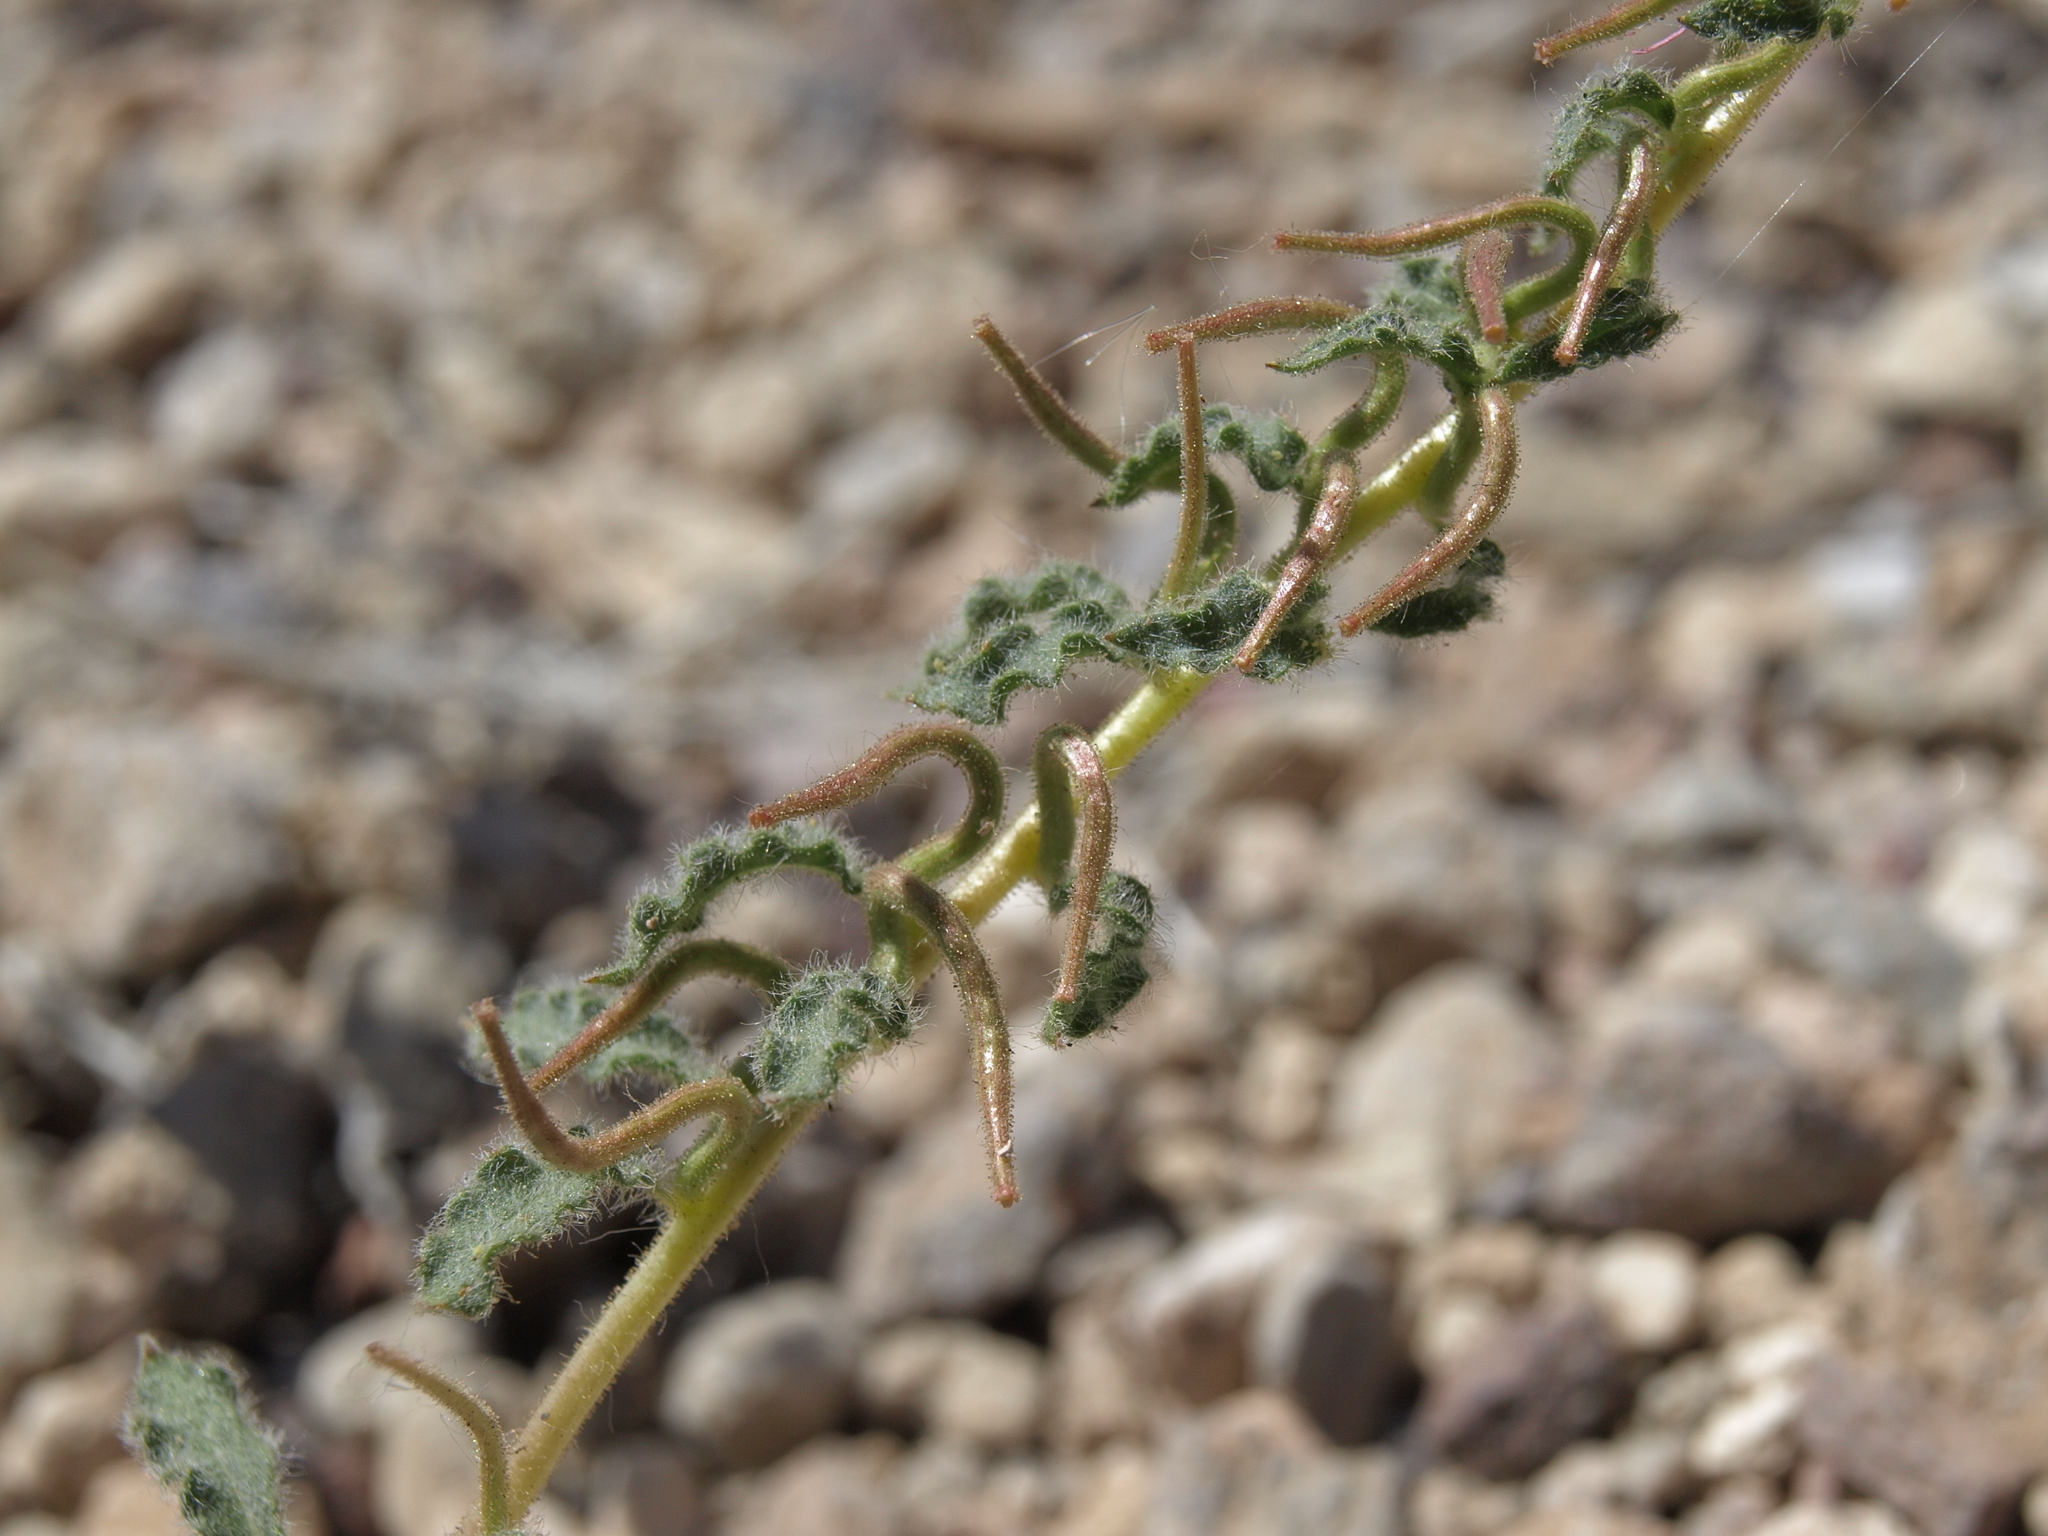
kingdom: Plantae
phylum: Tracheophyta
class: Magnoliopsida
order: Myrtales
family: Onagraceae
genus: Eremothera
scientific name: Eremothera boothii
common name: Booth's evening primrose
